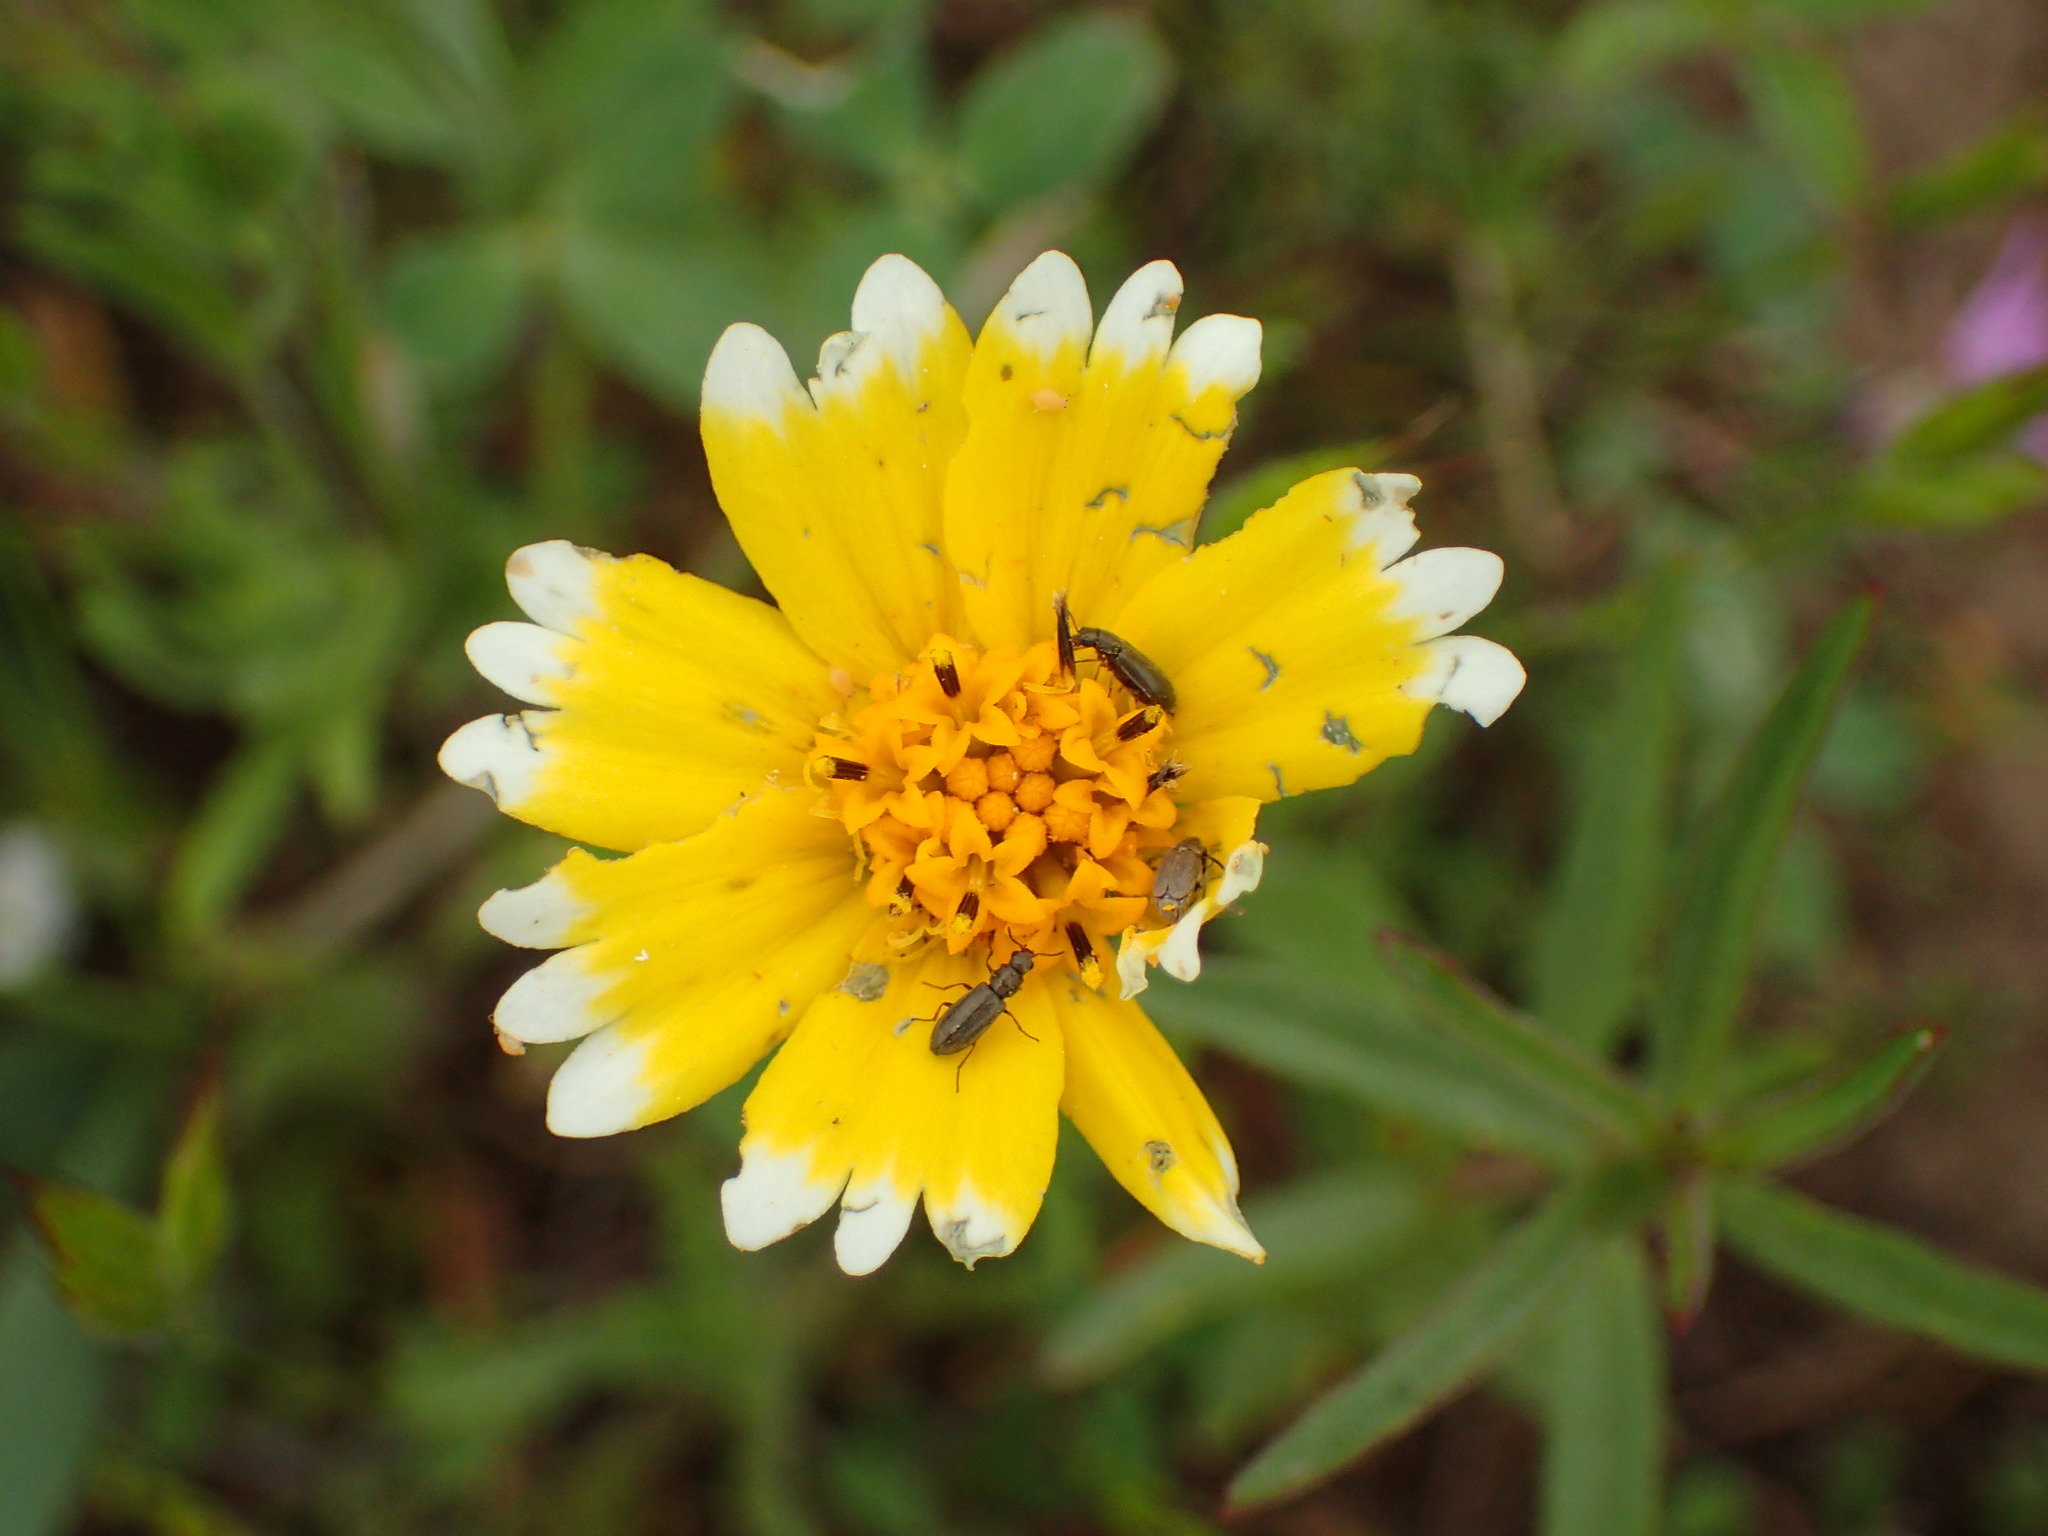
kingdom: Plantae
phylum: Tracheophyta
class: Magnoliopsida
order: Asterales
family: Asteraceae
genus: Layia
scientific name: Layia platyglossa
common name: Tidy-tips
